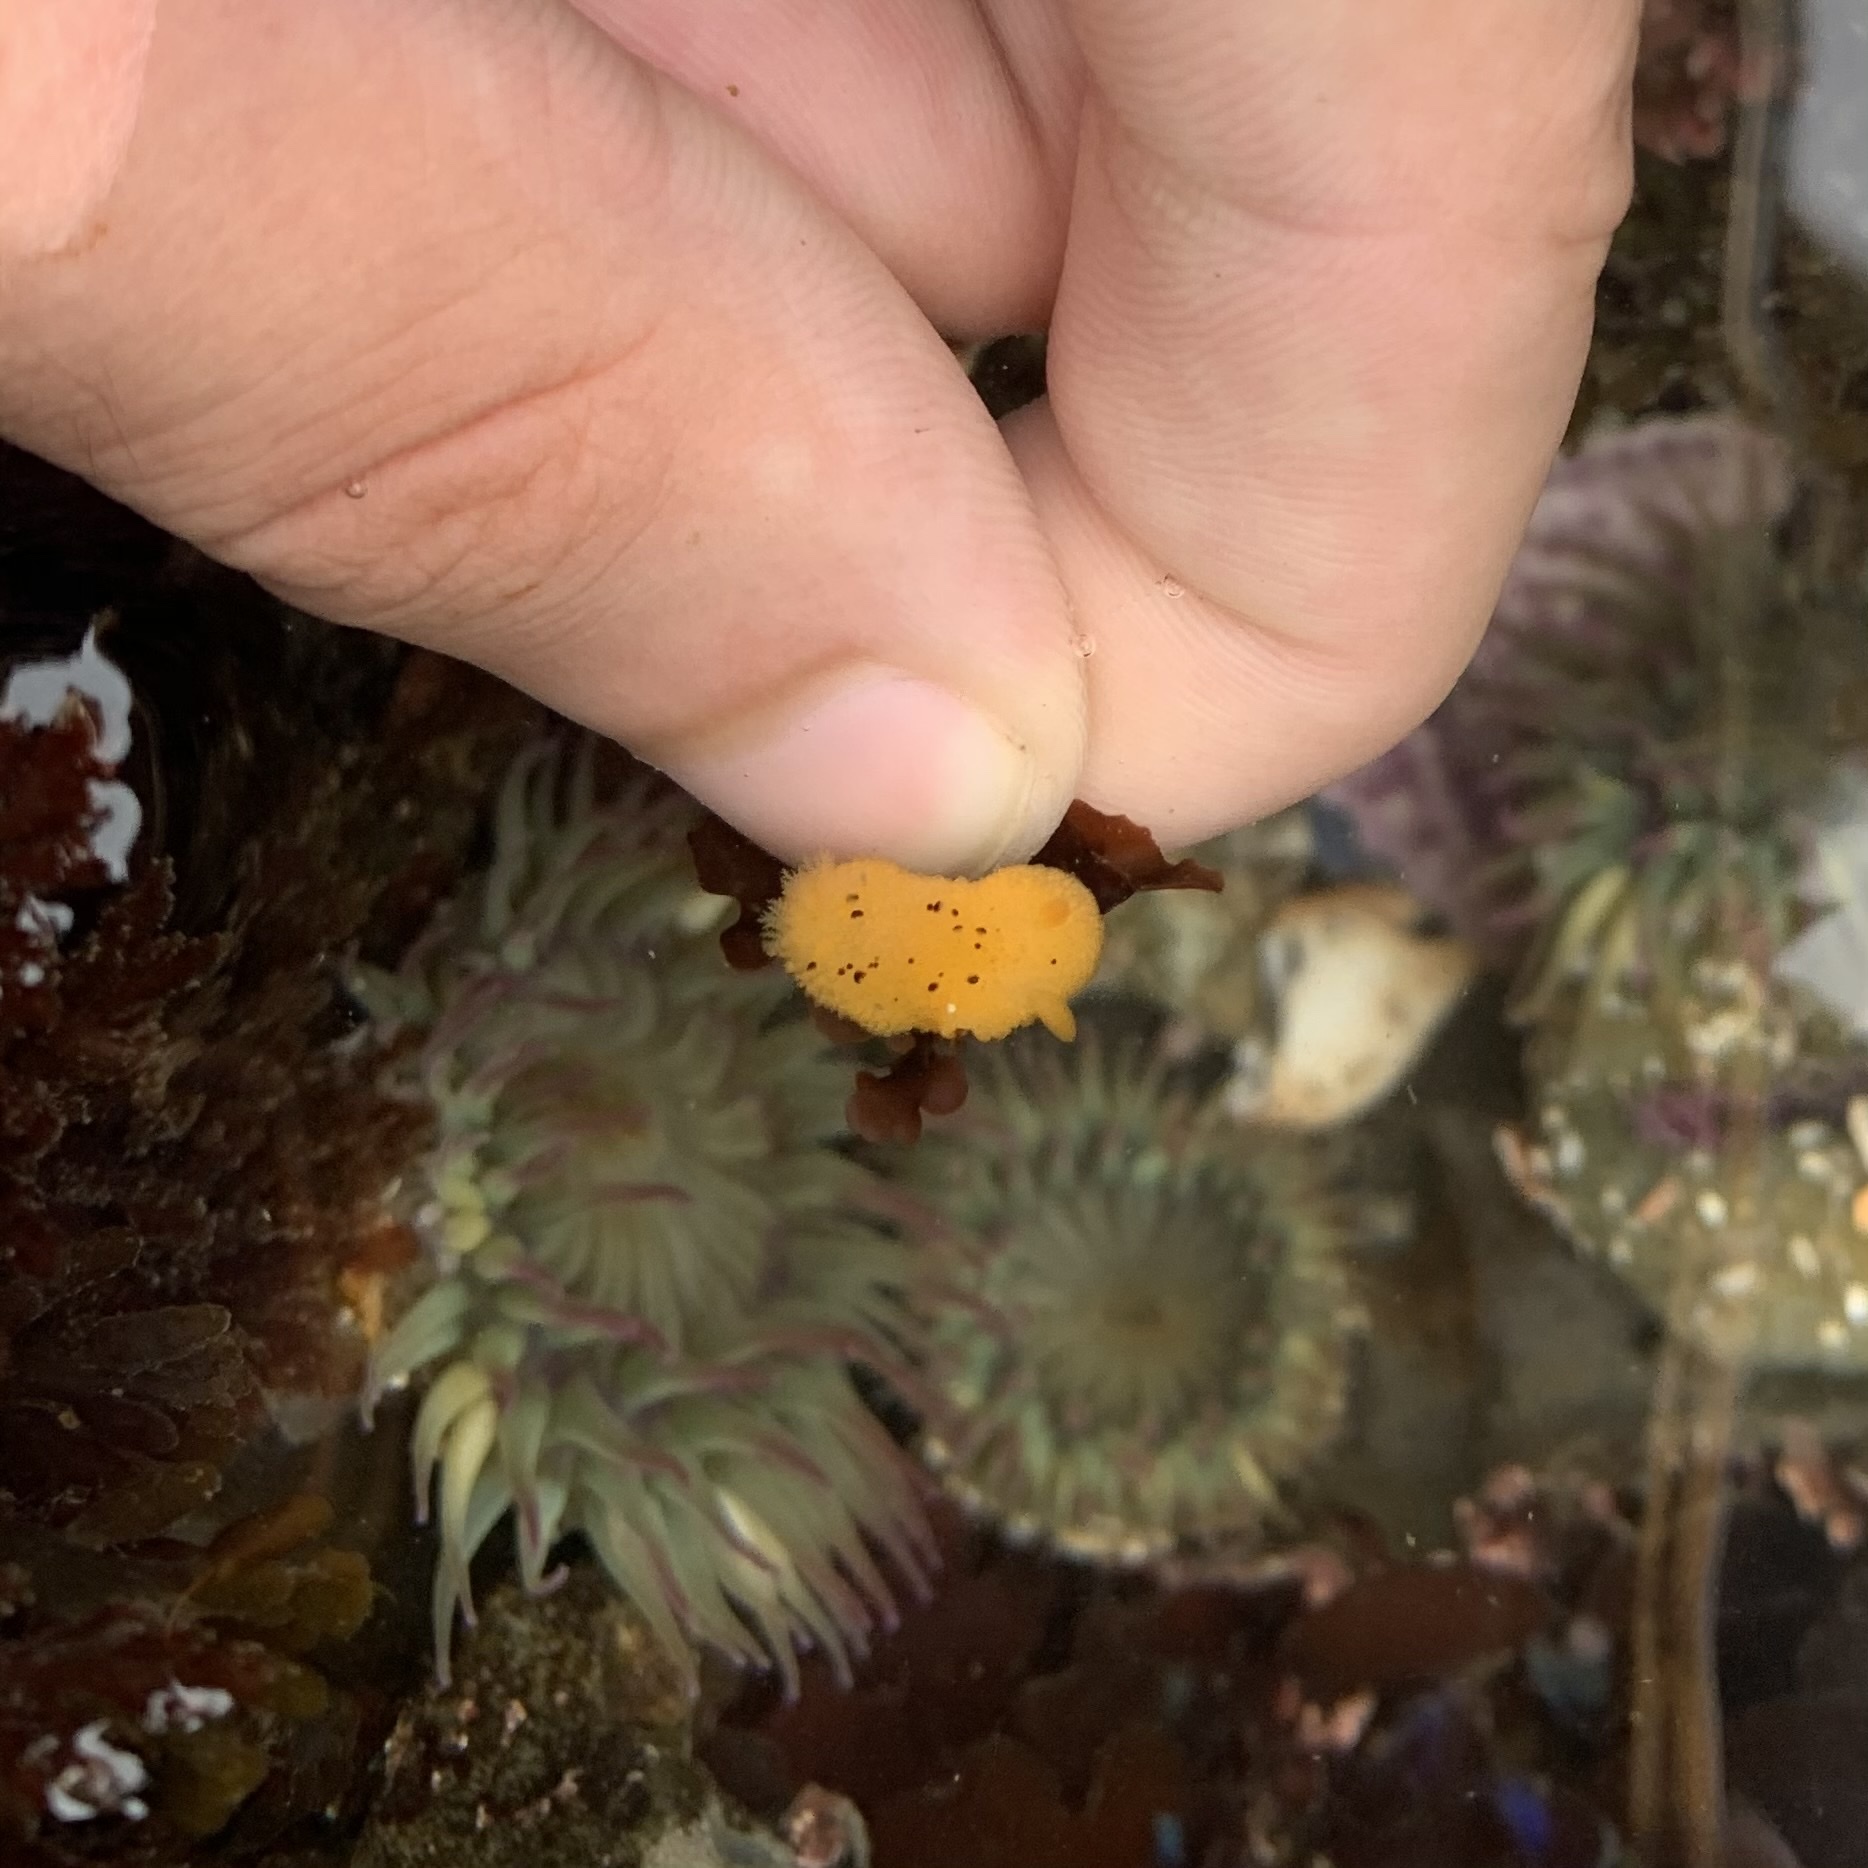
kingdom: Animalia
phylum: Mollusca
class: Gastropoda
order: Nudibranchia
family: Dorididae
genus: Doris
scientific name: Doris montereyensis
